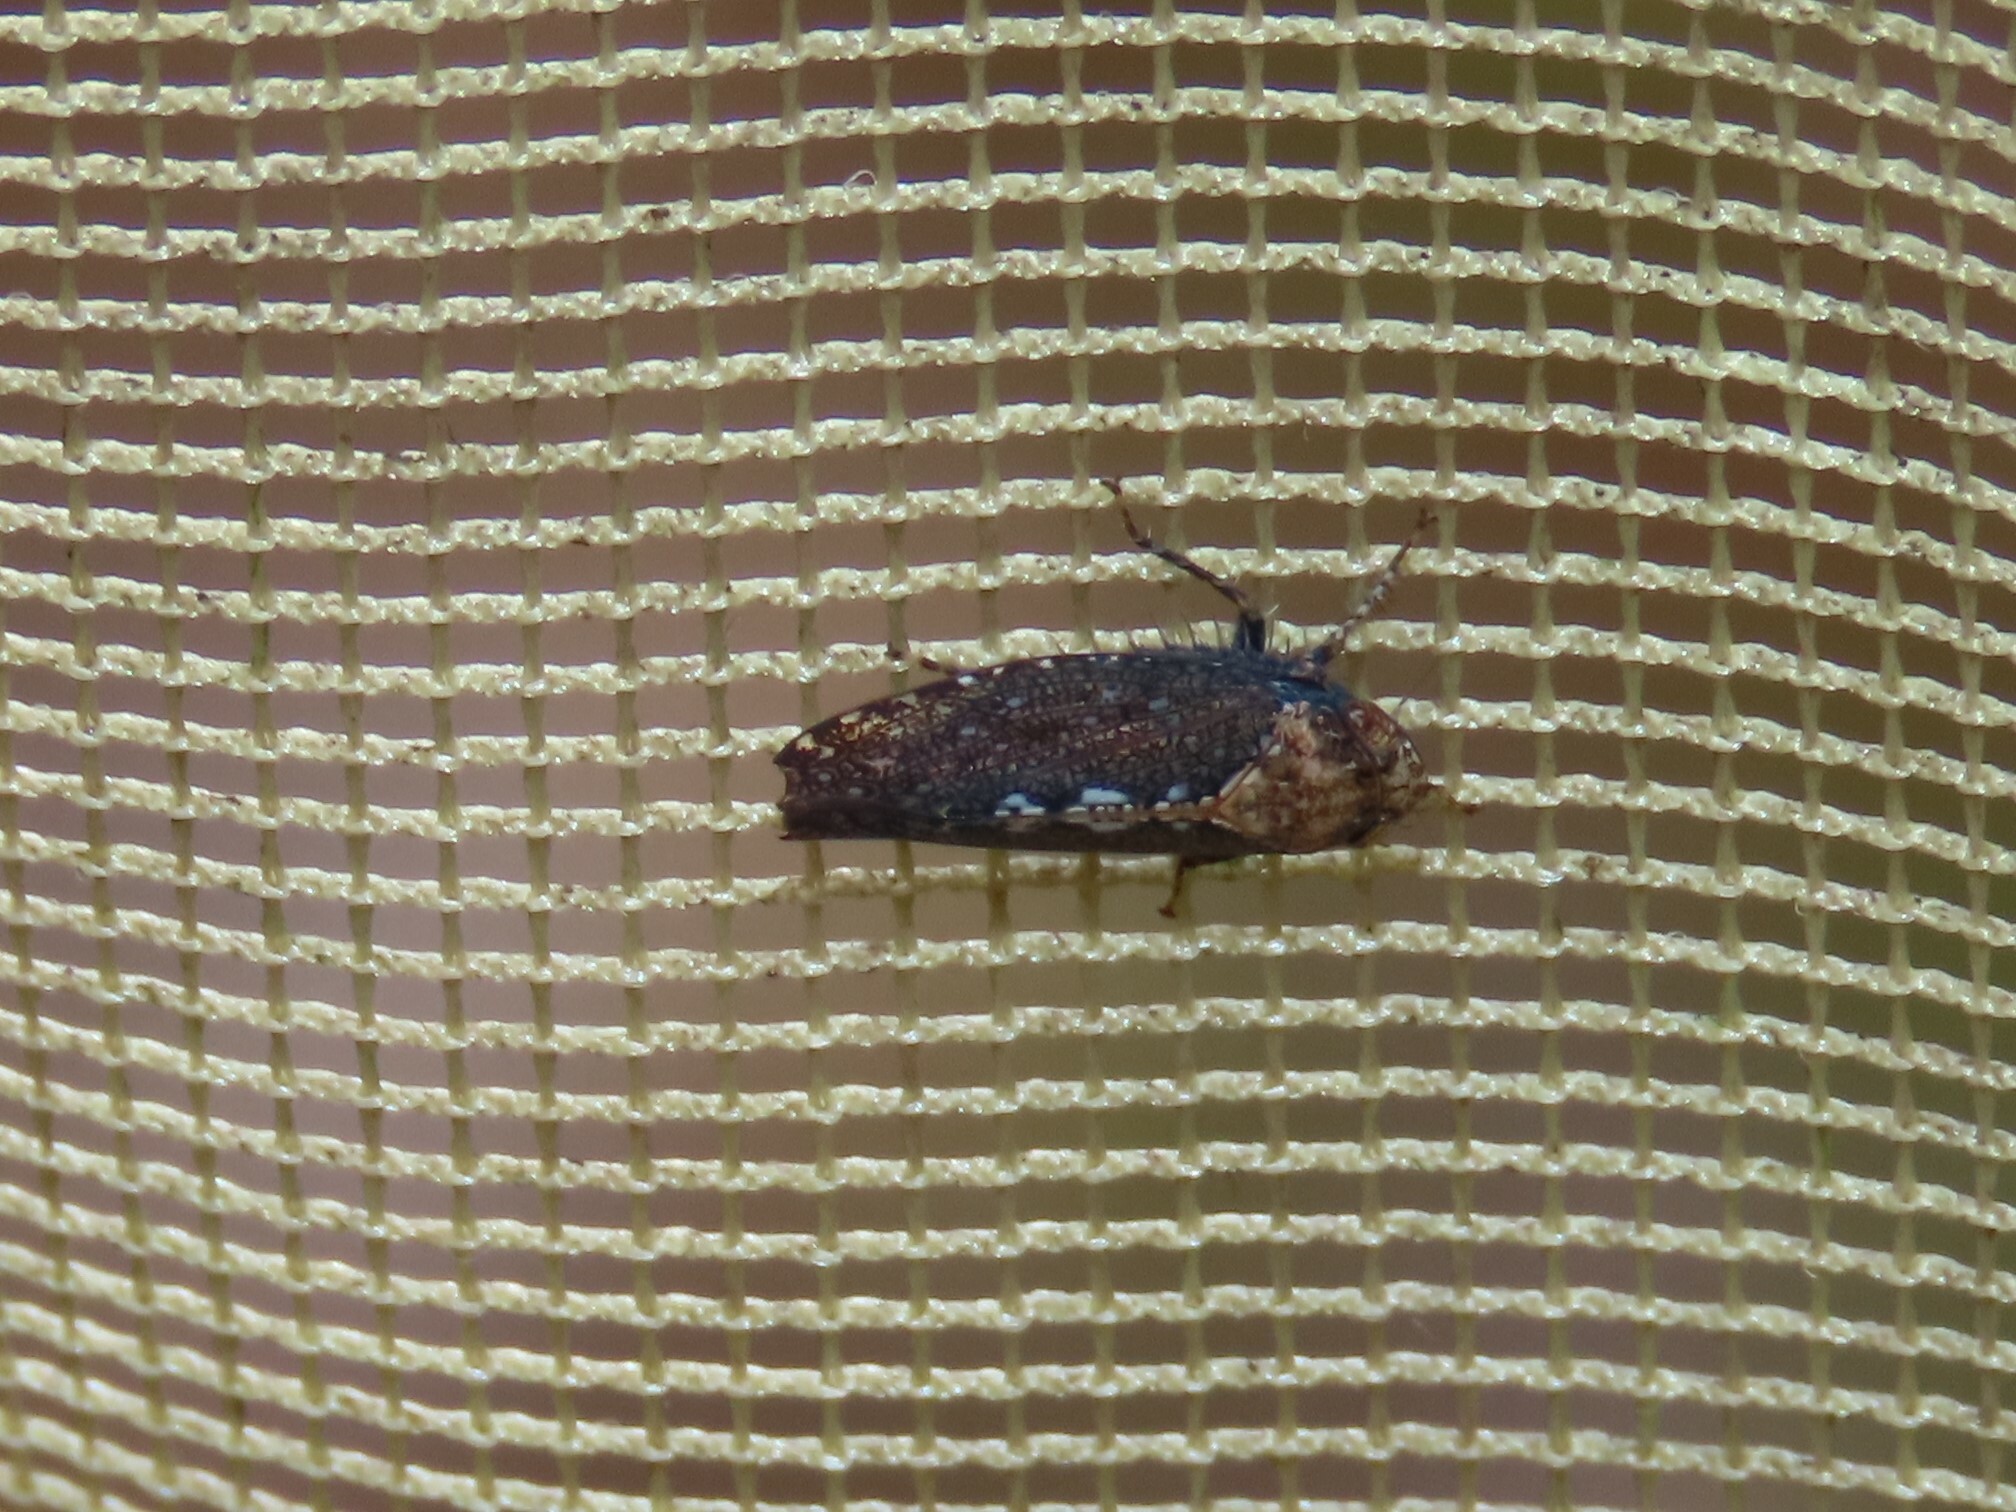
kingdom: Animalia
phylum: Arthropoda
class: Insecta
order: Hemiptera
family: Cicadellidae
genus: Excultanus
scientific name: Excultanus excultus
